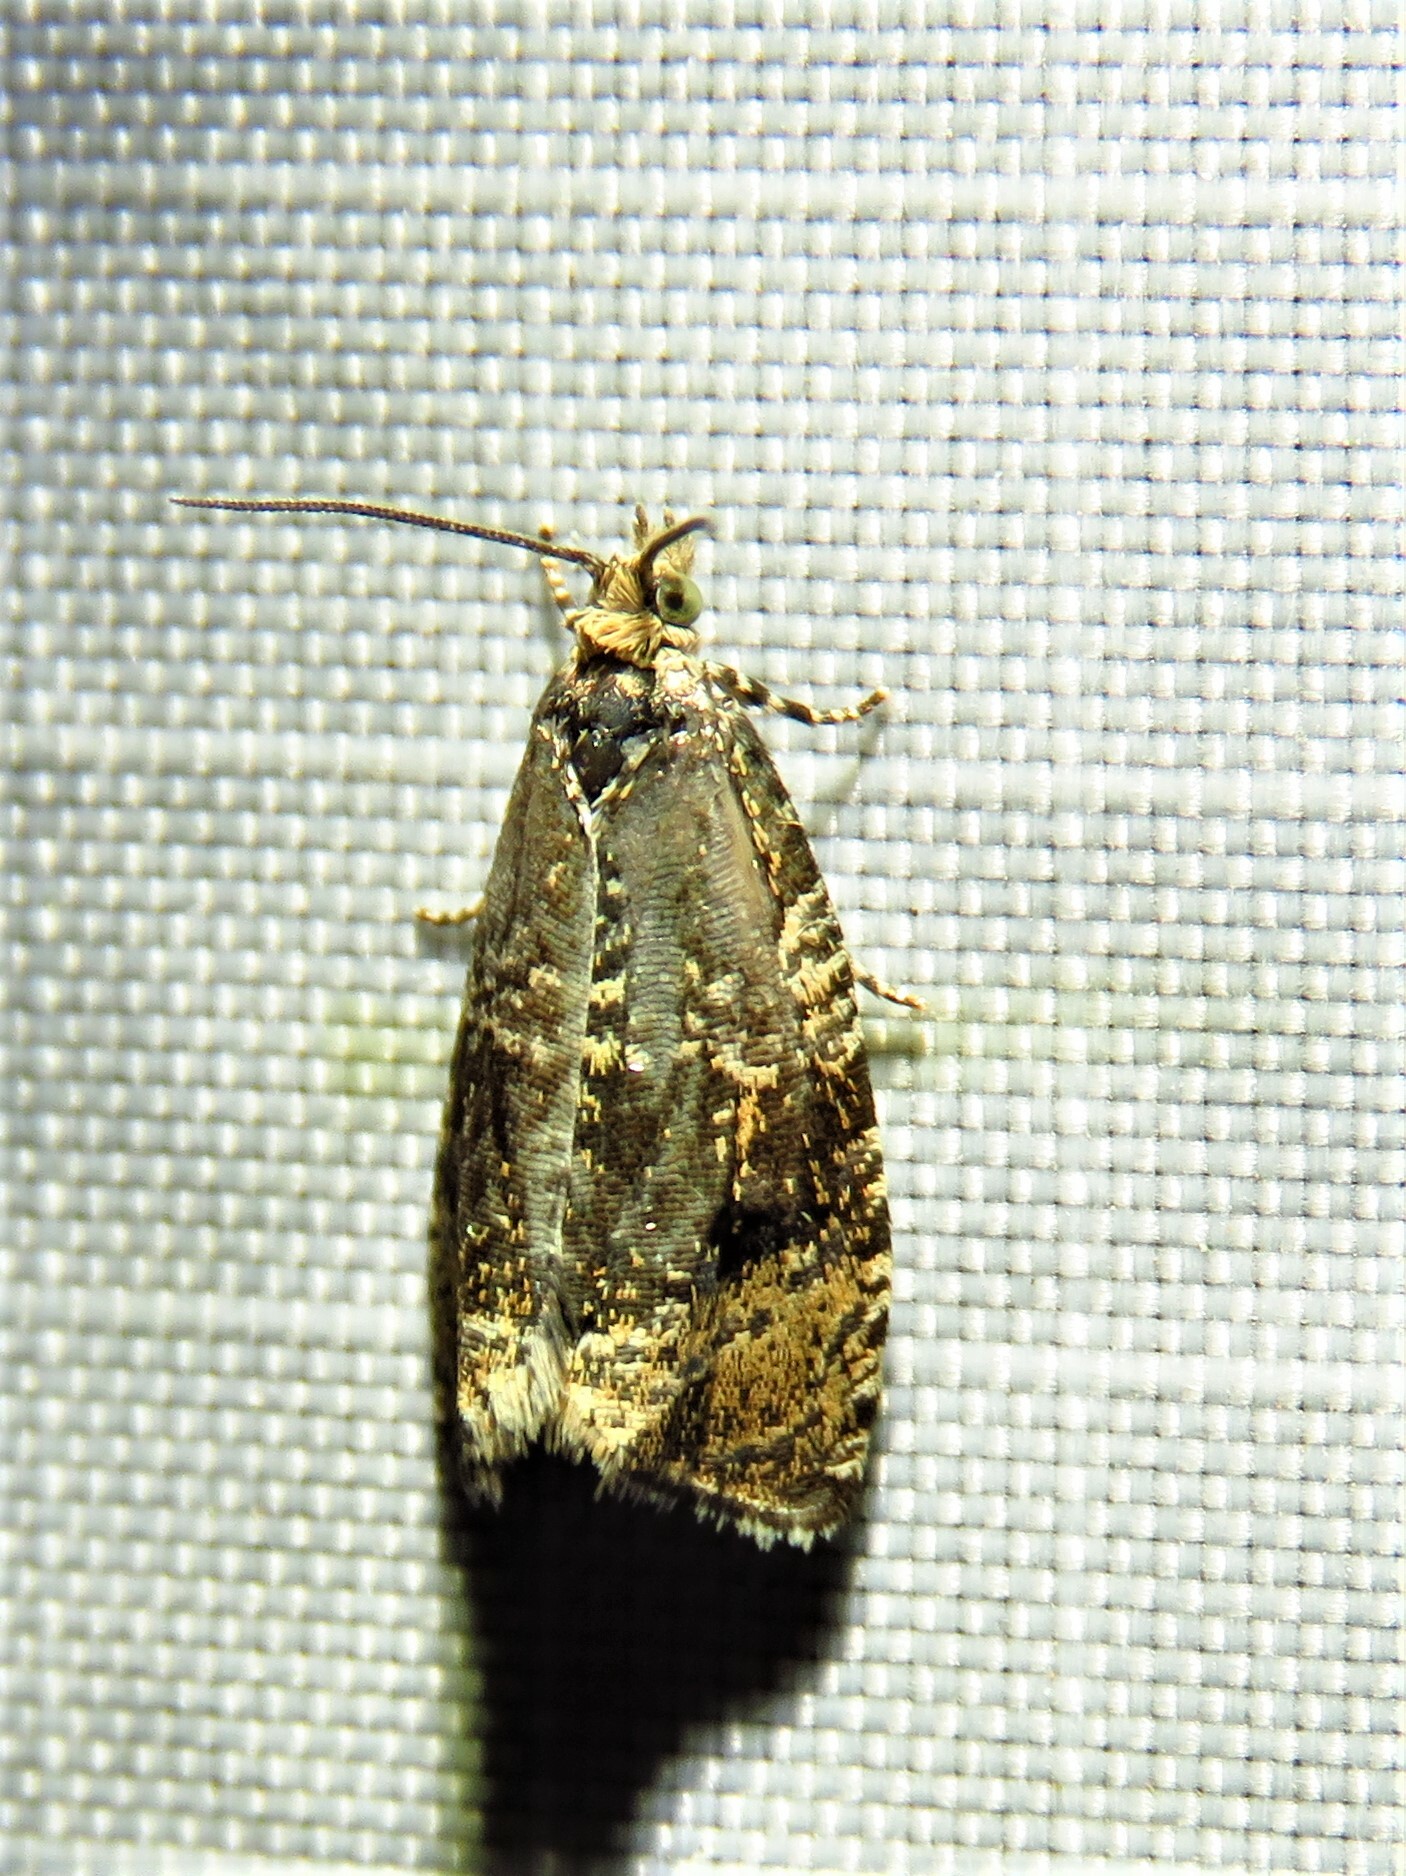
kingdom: Animalia
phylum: Arthropoda
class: Insecta
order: Lepidoptera
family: Tortricidae
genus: Syricoris
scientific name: Syricoris lacunana
